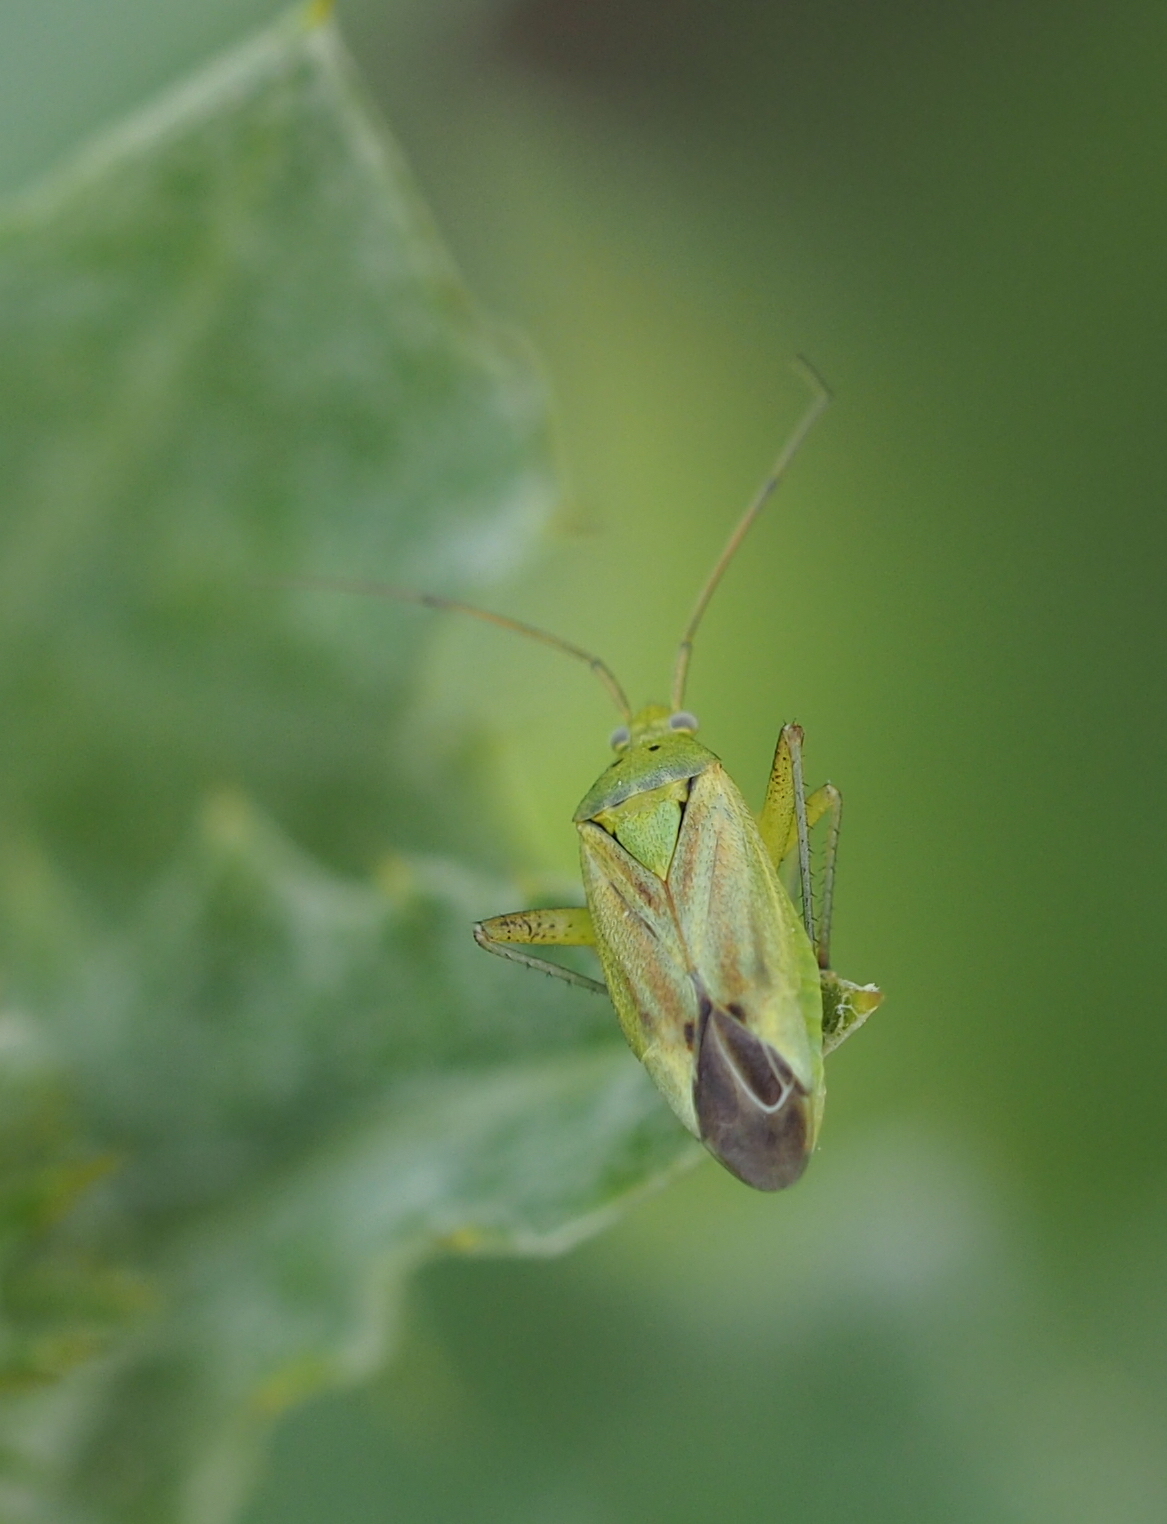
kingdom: Animalia
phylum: Arthropoda
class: Insecta
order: Hemiptera
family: Miridae
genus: Closterotomus
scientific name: Closterotomus norvegicus
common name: Plant bug
